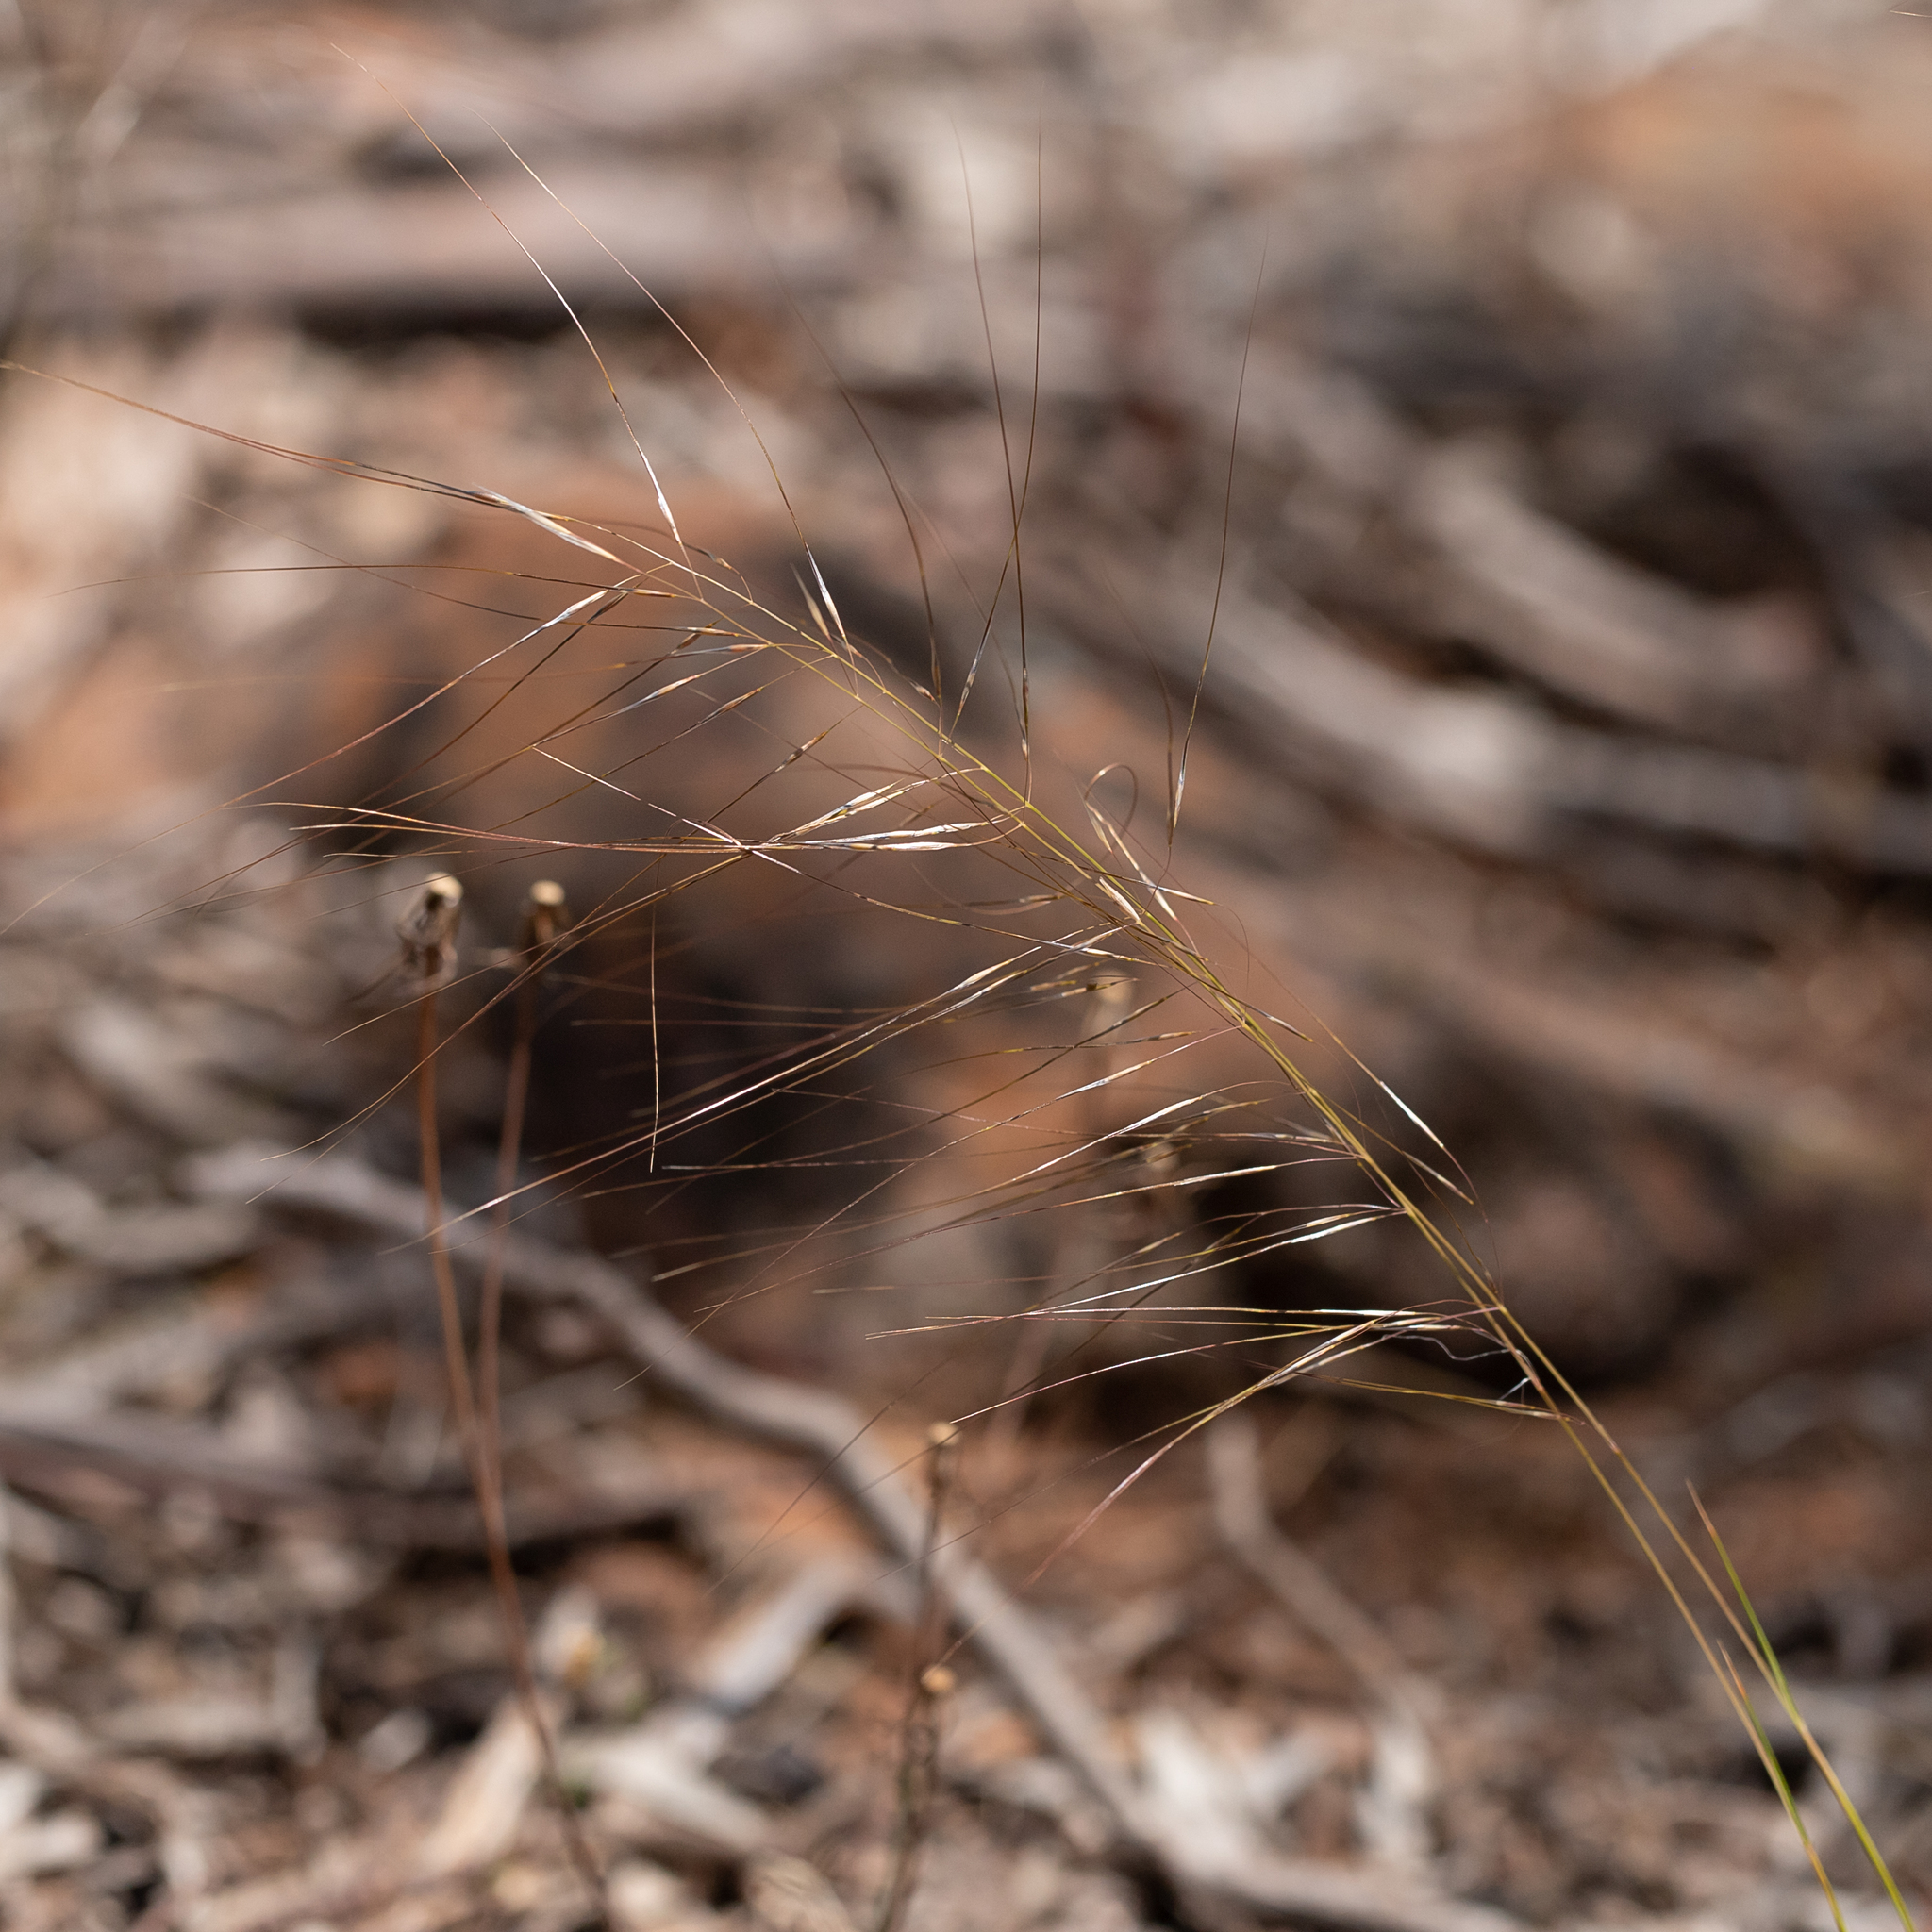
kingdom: Plantae
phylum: Tracheophyta
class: Liliopsida
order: Poales
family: Poaceae
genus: Austrostipa
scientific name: Austrostipa scabra
